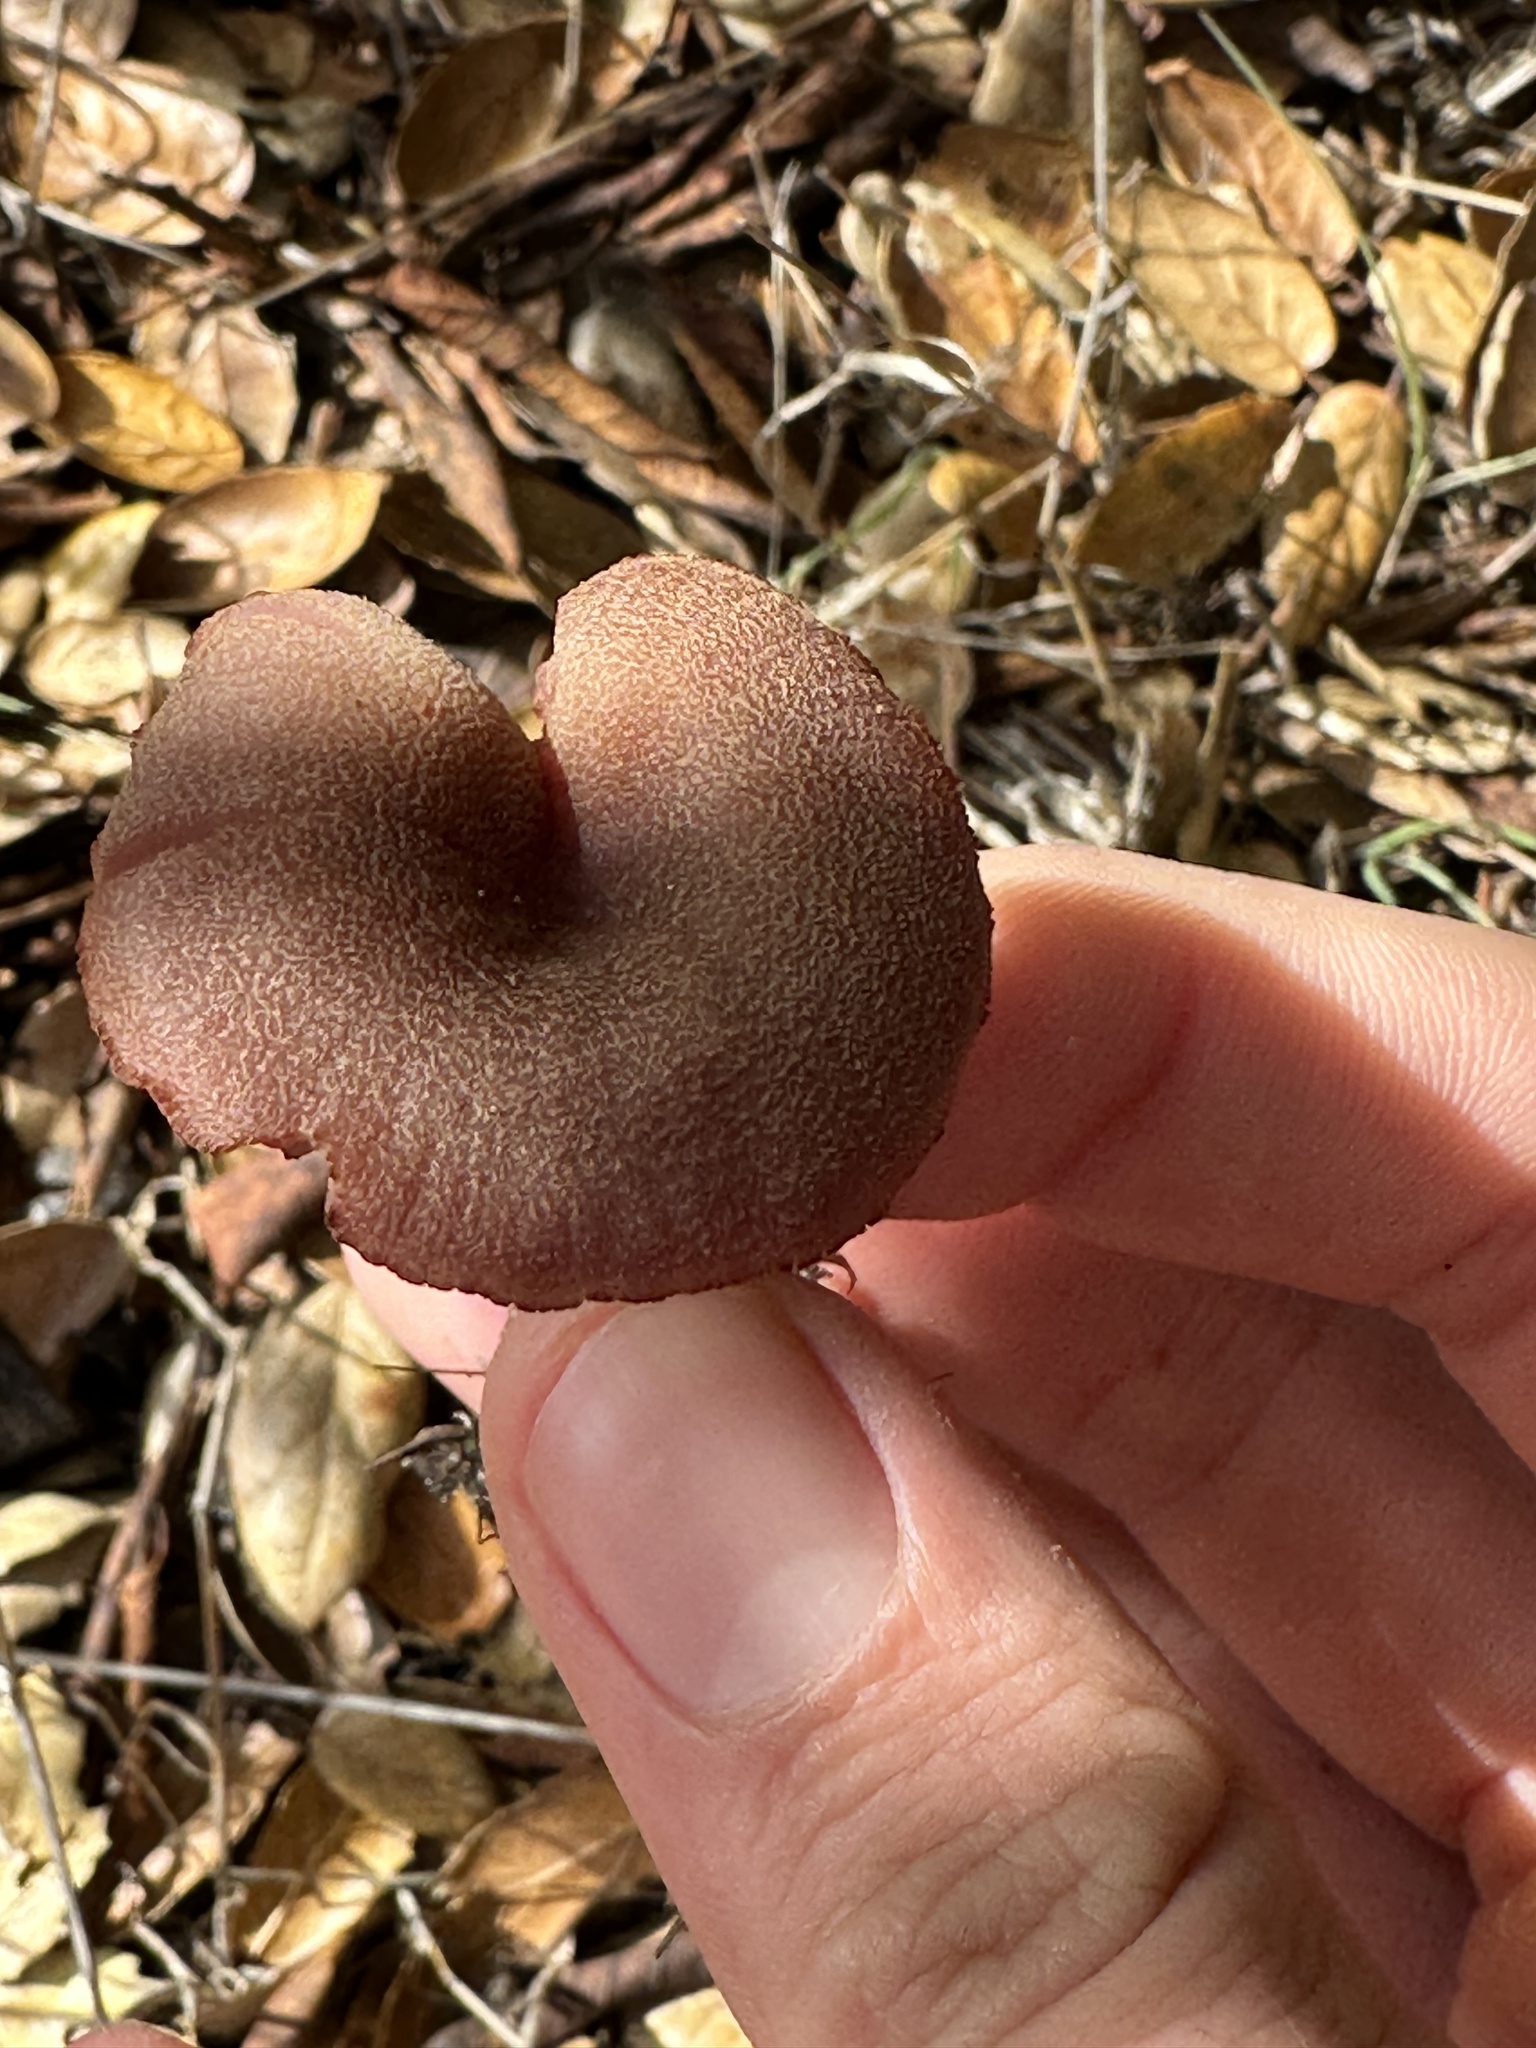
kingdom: Fungi
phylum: Basidiomycota
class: Agaricomycetes
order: Agaricales
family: Hydnangiaceae
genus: Laccaria
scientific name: Laccaria amethysteo-occidentalis
